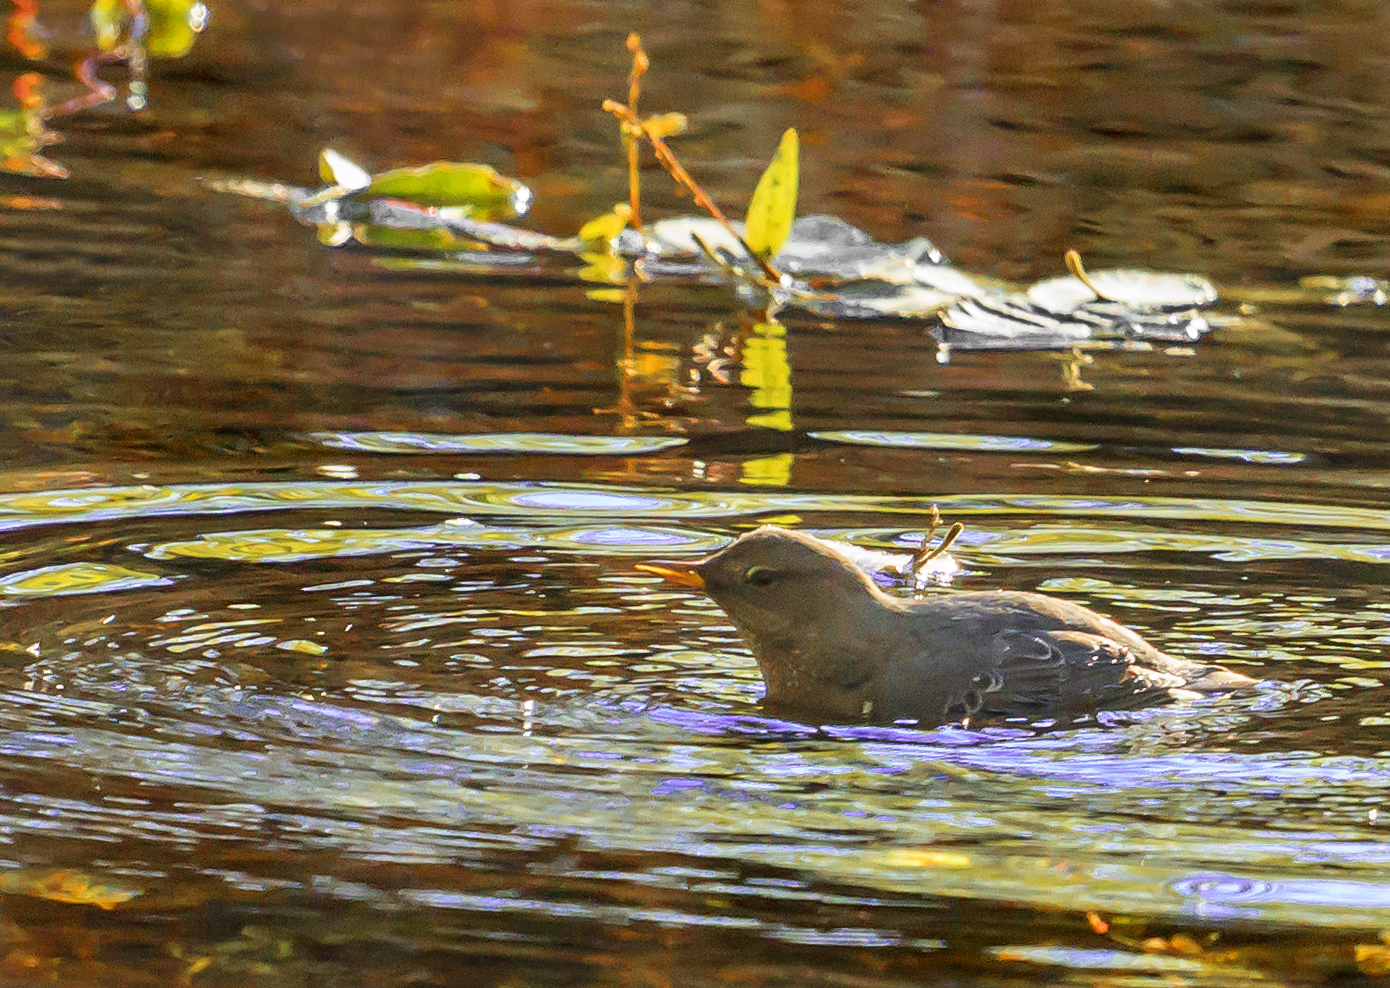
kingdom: Animalia
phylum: Chordata
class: Aves
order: Passeriformes
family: Cinclidae
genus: Cinclus
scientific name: Cinclus mexicanus
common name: American dipper
